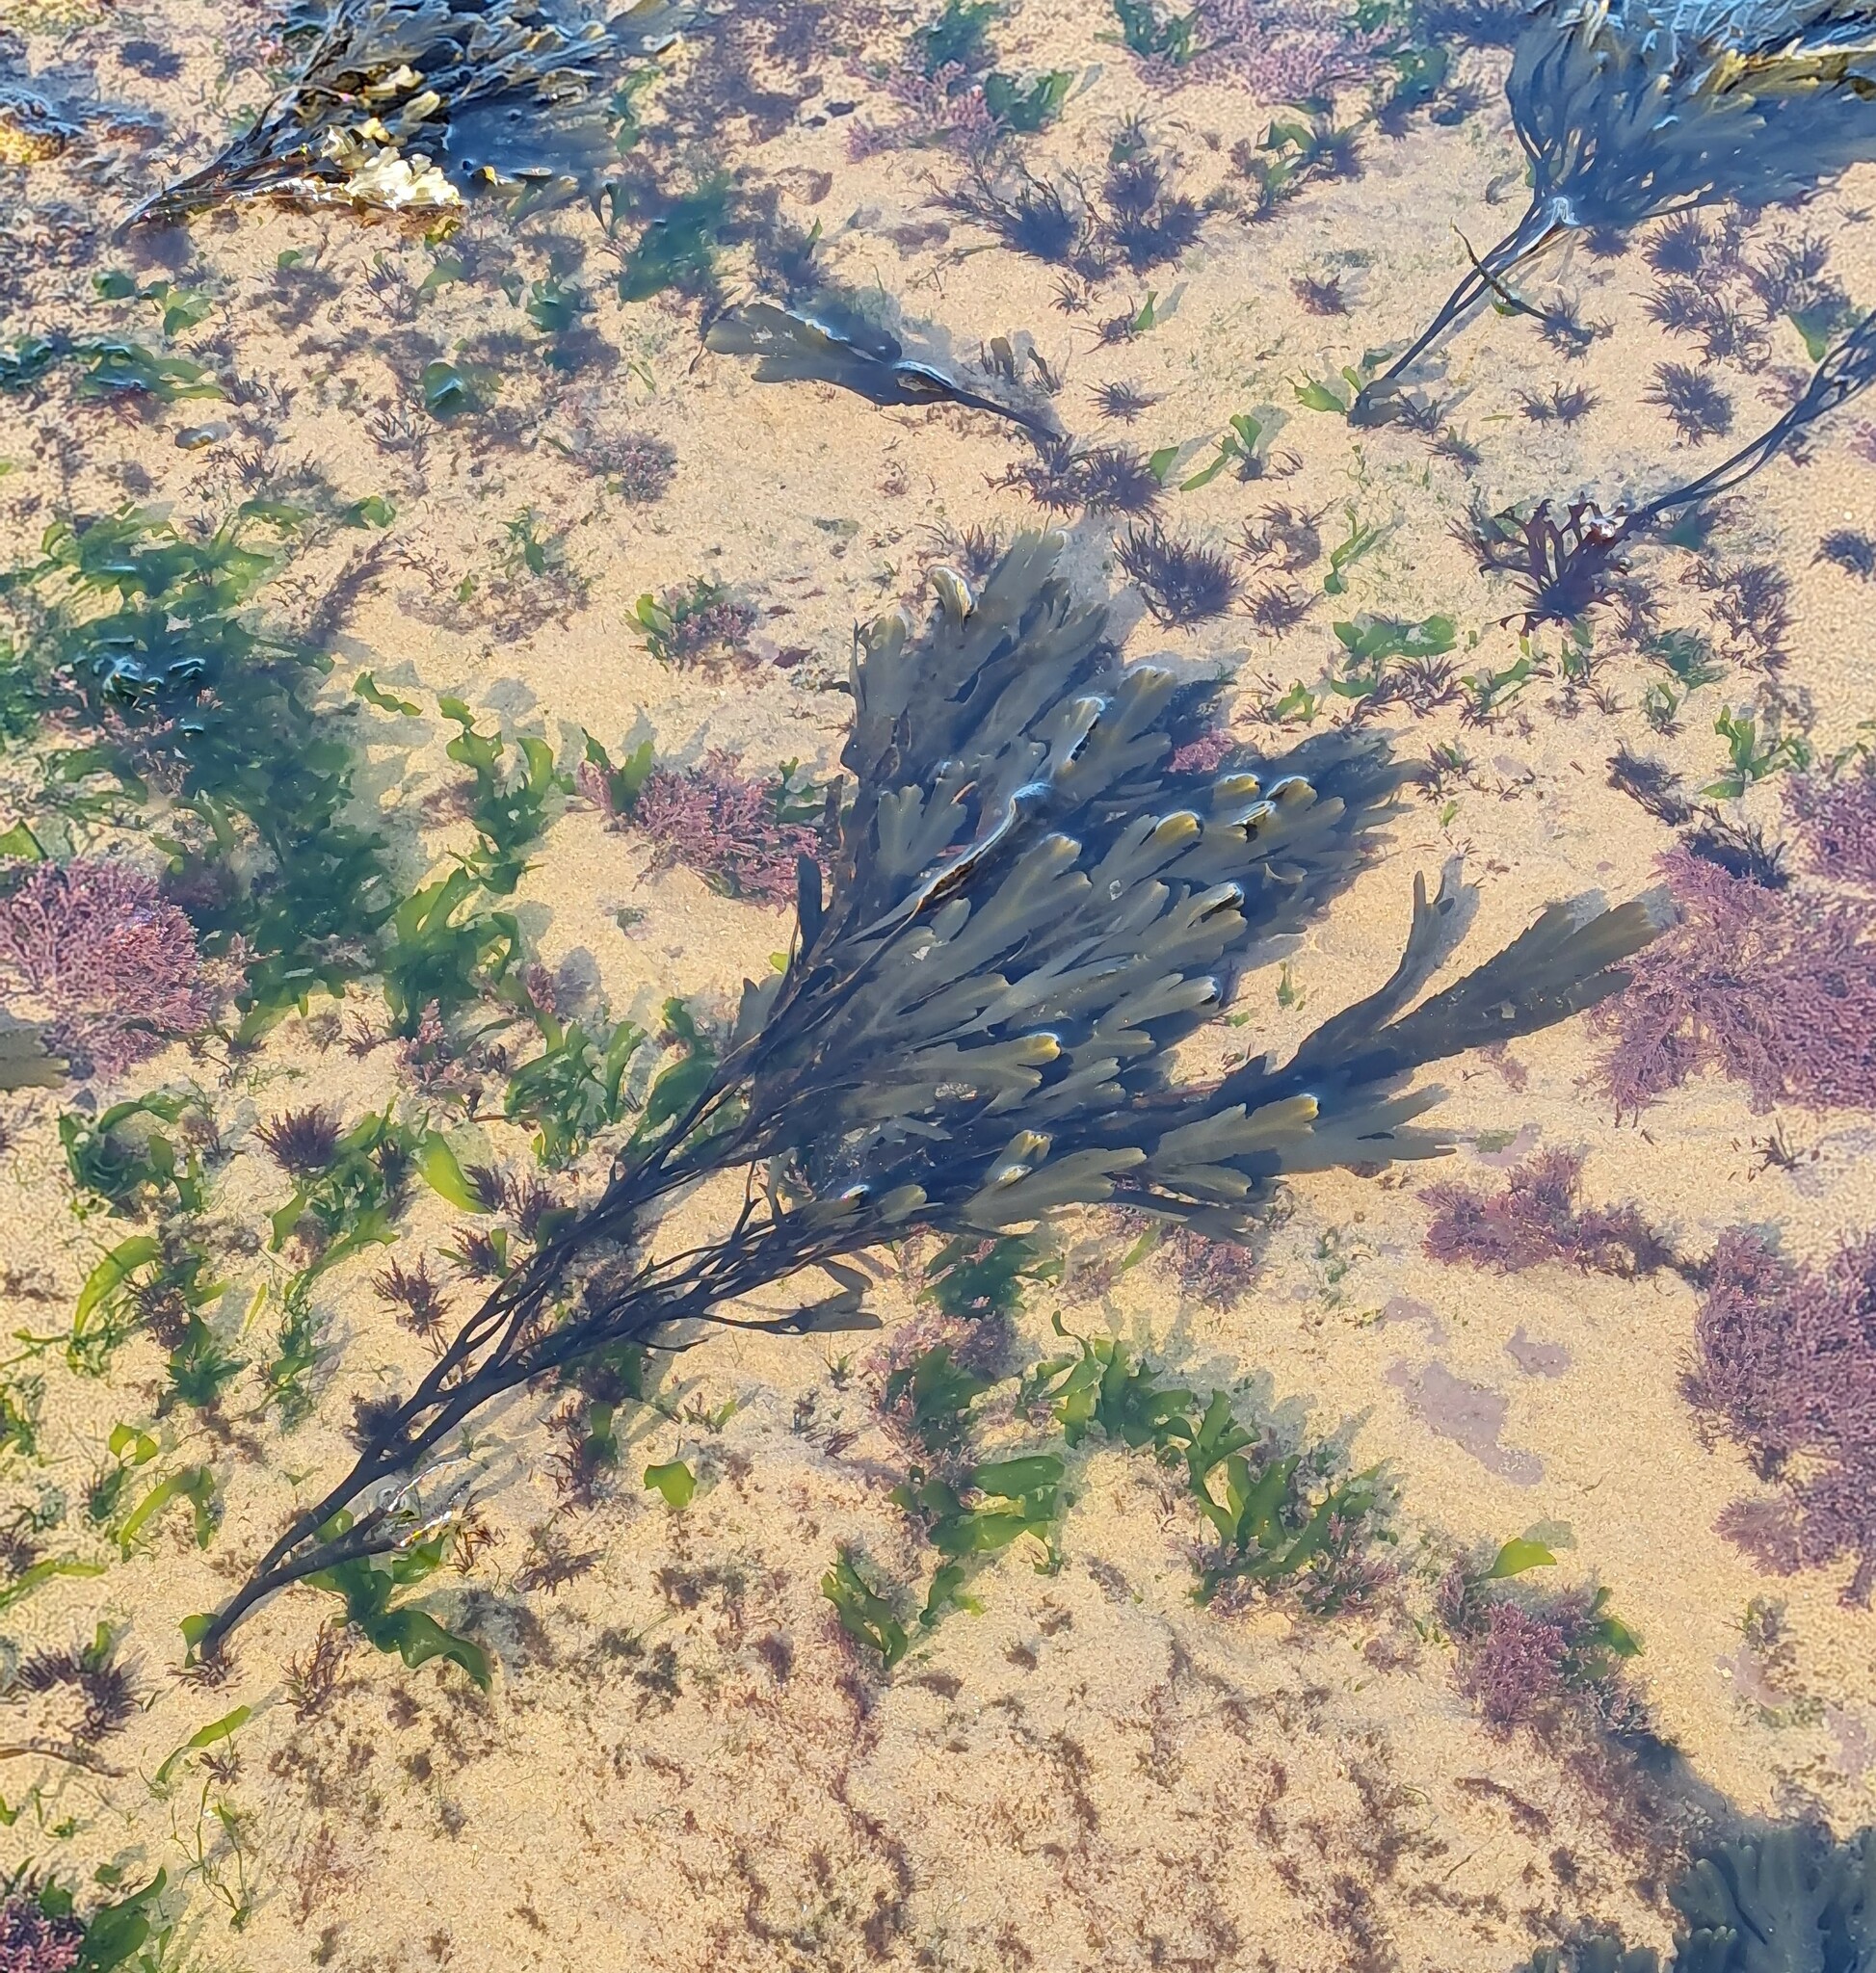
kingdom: Chromista
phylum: Ochrophyta
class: Phaeophyceae
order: Fucales
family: Fucaceae
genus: Fucus
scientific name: Fucus serratus
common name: Toothed wrack
